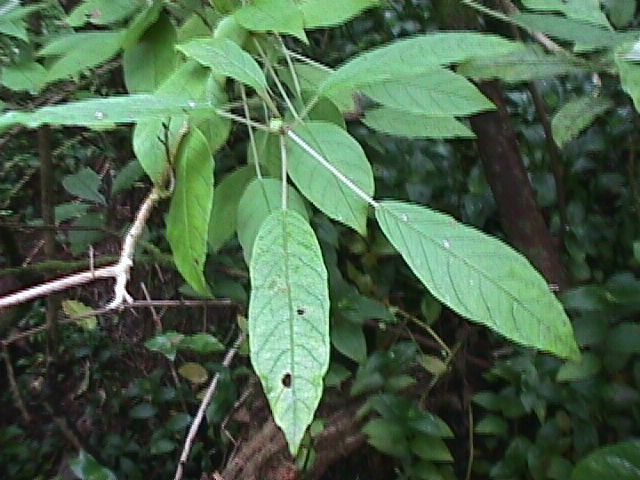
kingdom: Plantae
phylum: Tracheophyta
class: Magnoliopsida
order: Myrtales
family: Onagraceae
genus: Fuchsia
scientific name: Fuchsia excorticata
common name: Tree fuchsia
